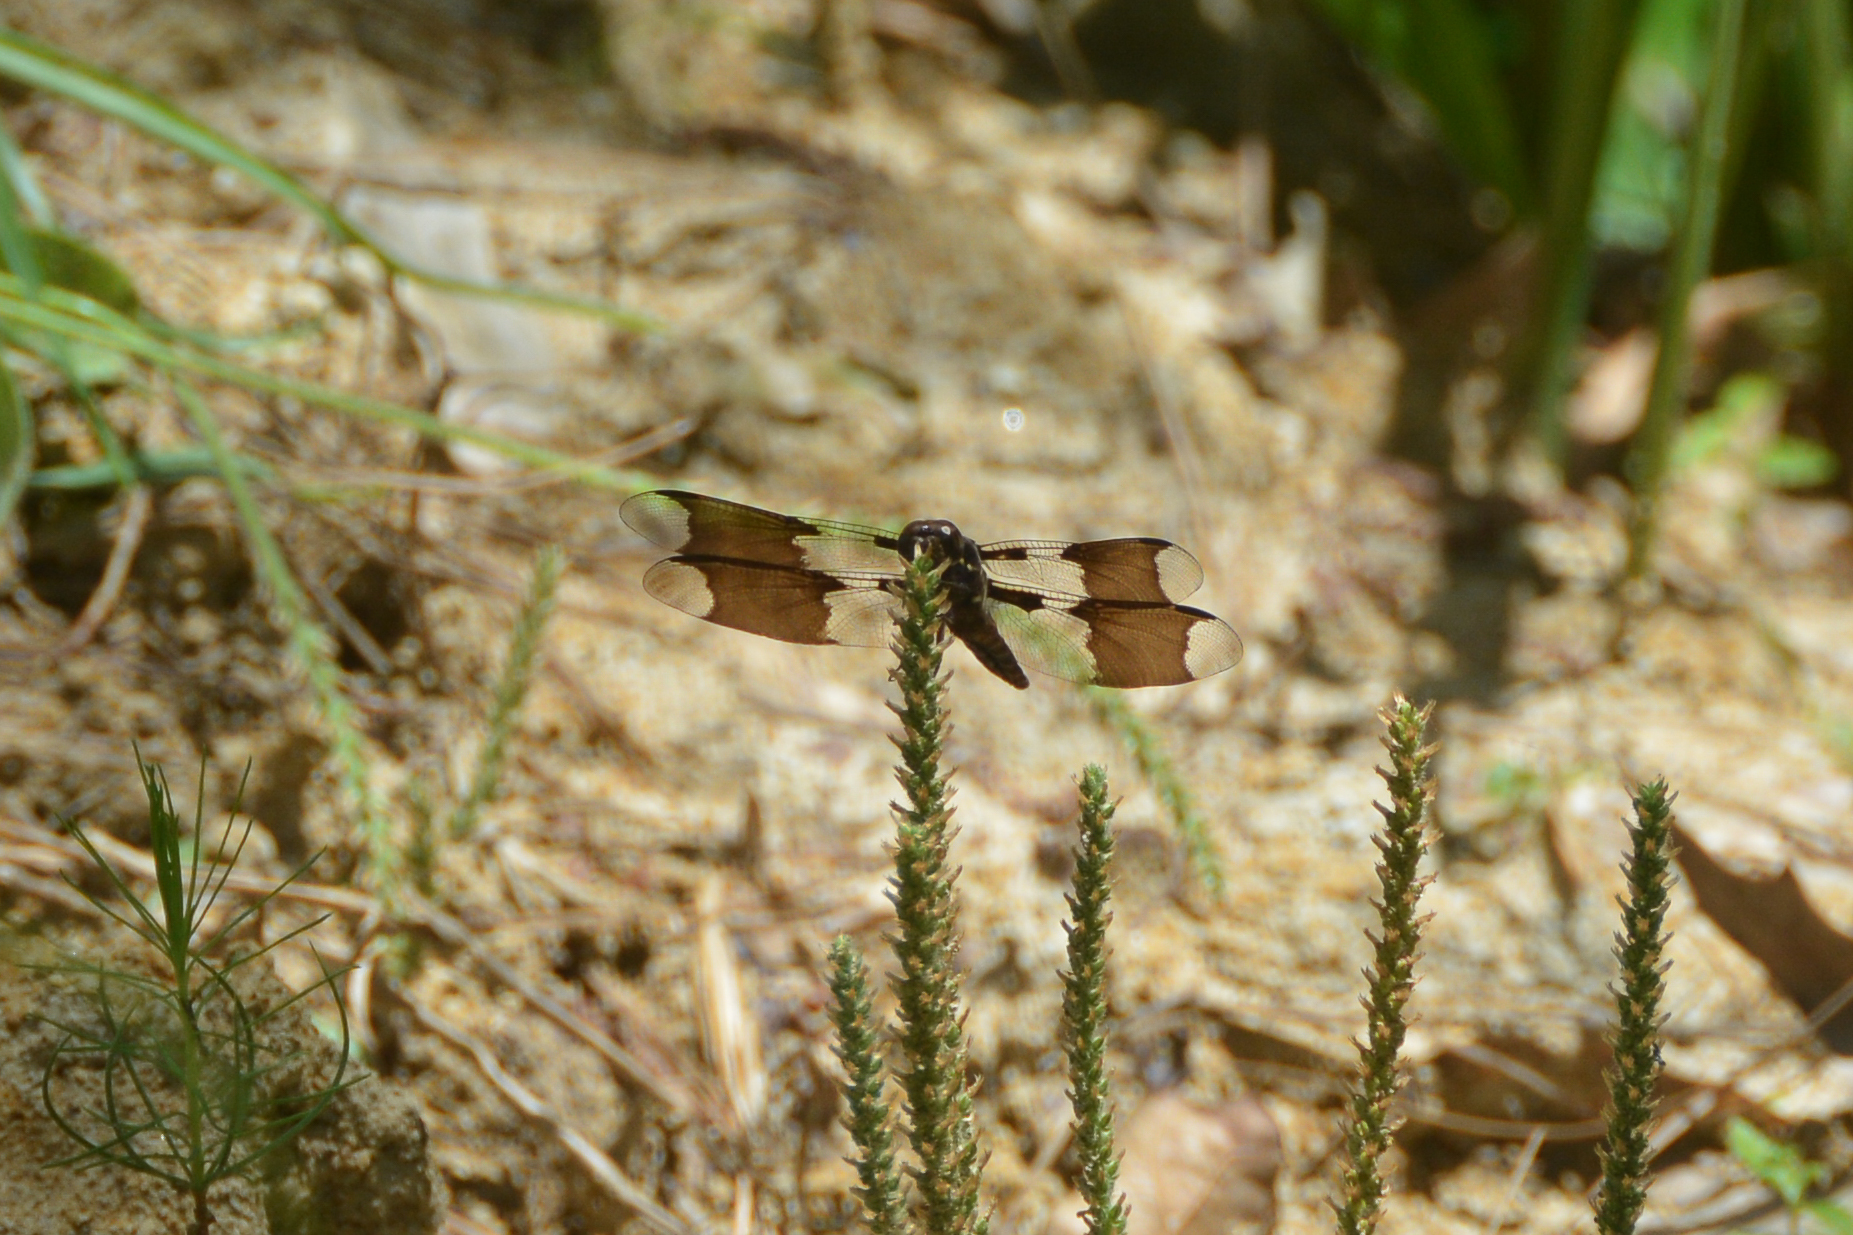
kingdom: Animalia
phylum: Arthropoda
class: Insecta
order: Odonata
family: Libellulidae
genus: Plathemis
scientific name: Plathemis lydia
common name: Common whitetail
